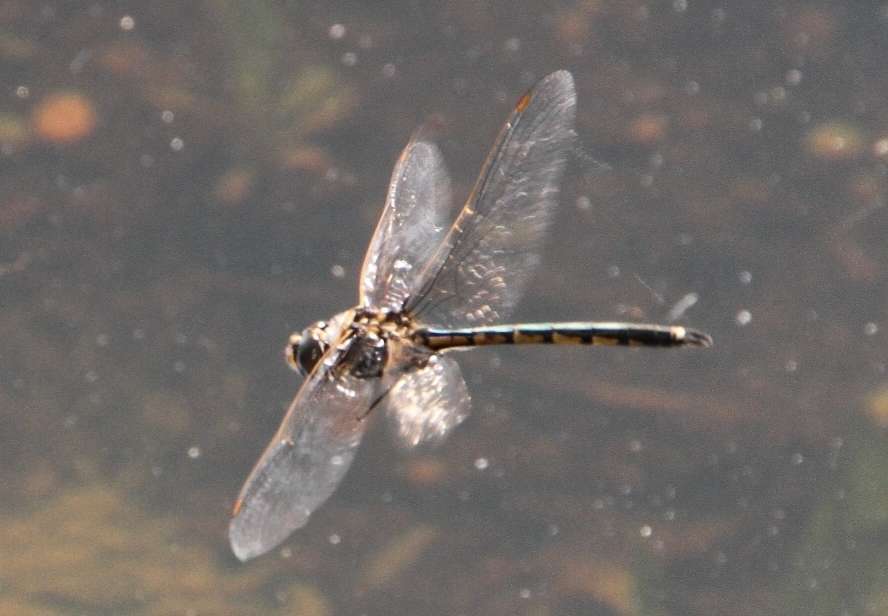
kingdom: Animalia
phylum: Arthropoda
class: Insecta
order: Odonata
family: Corduliidae
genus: Hemicordulia
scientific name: Hemicordulia tau
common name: Tau emerald
